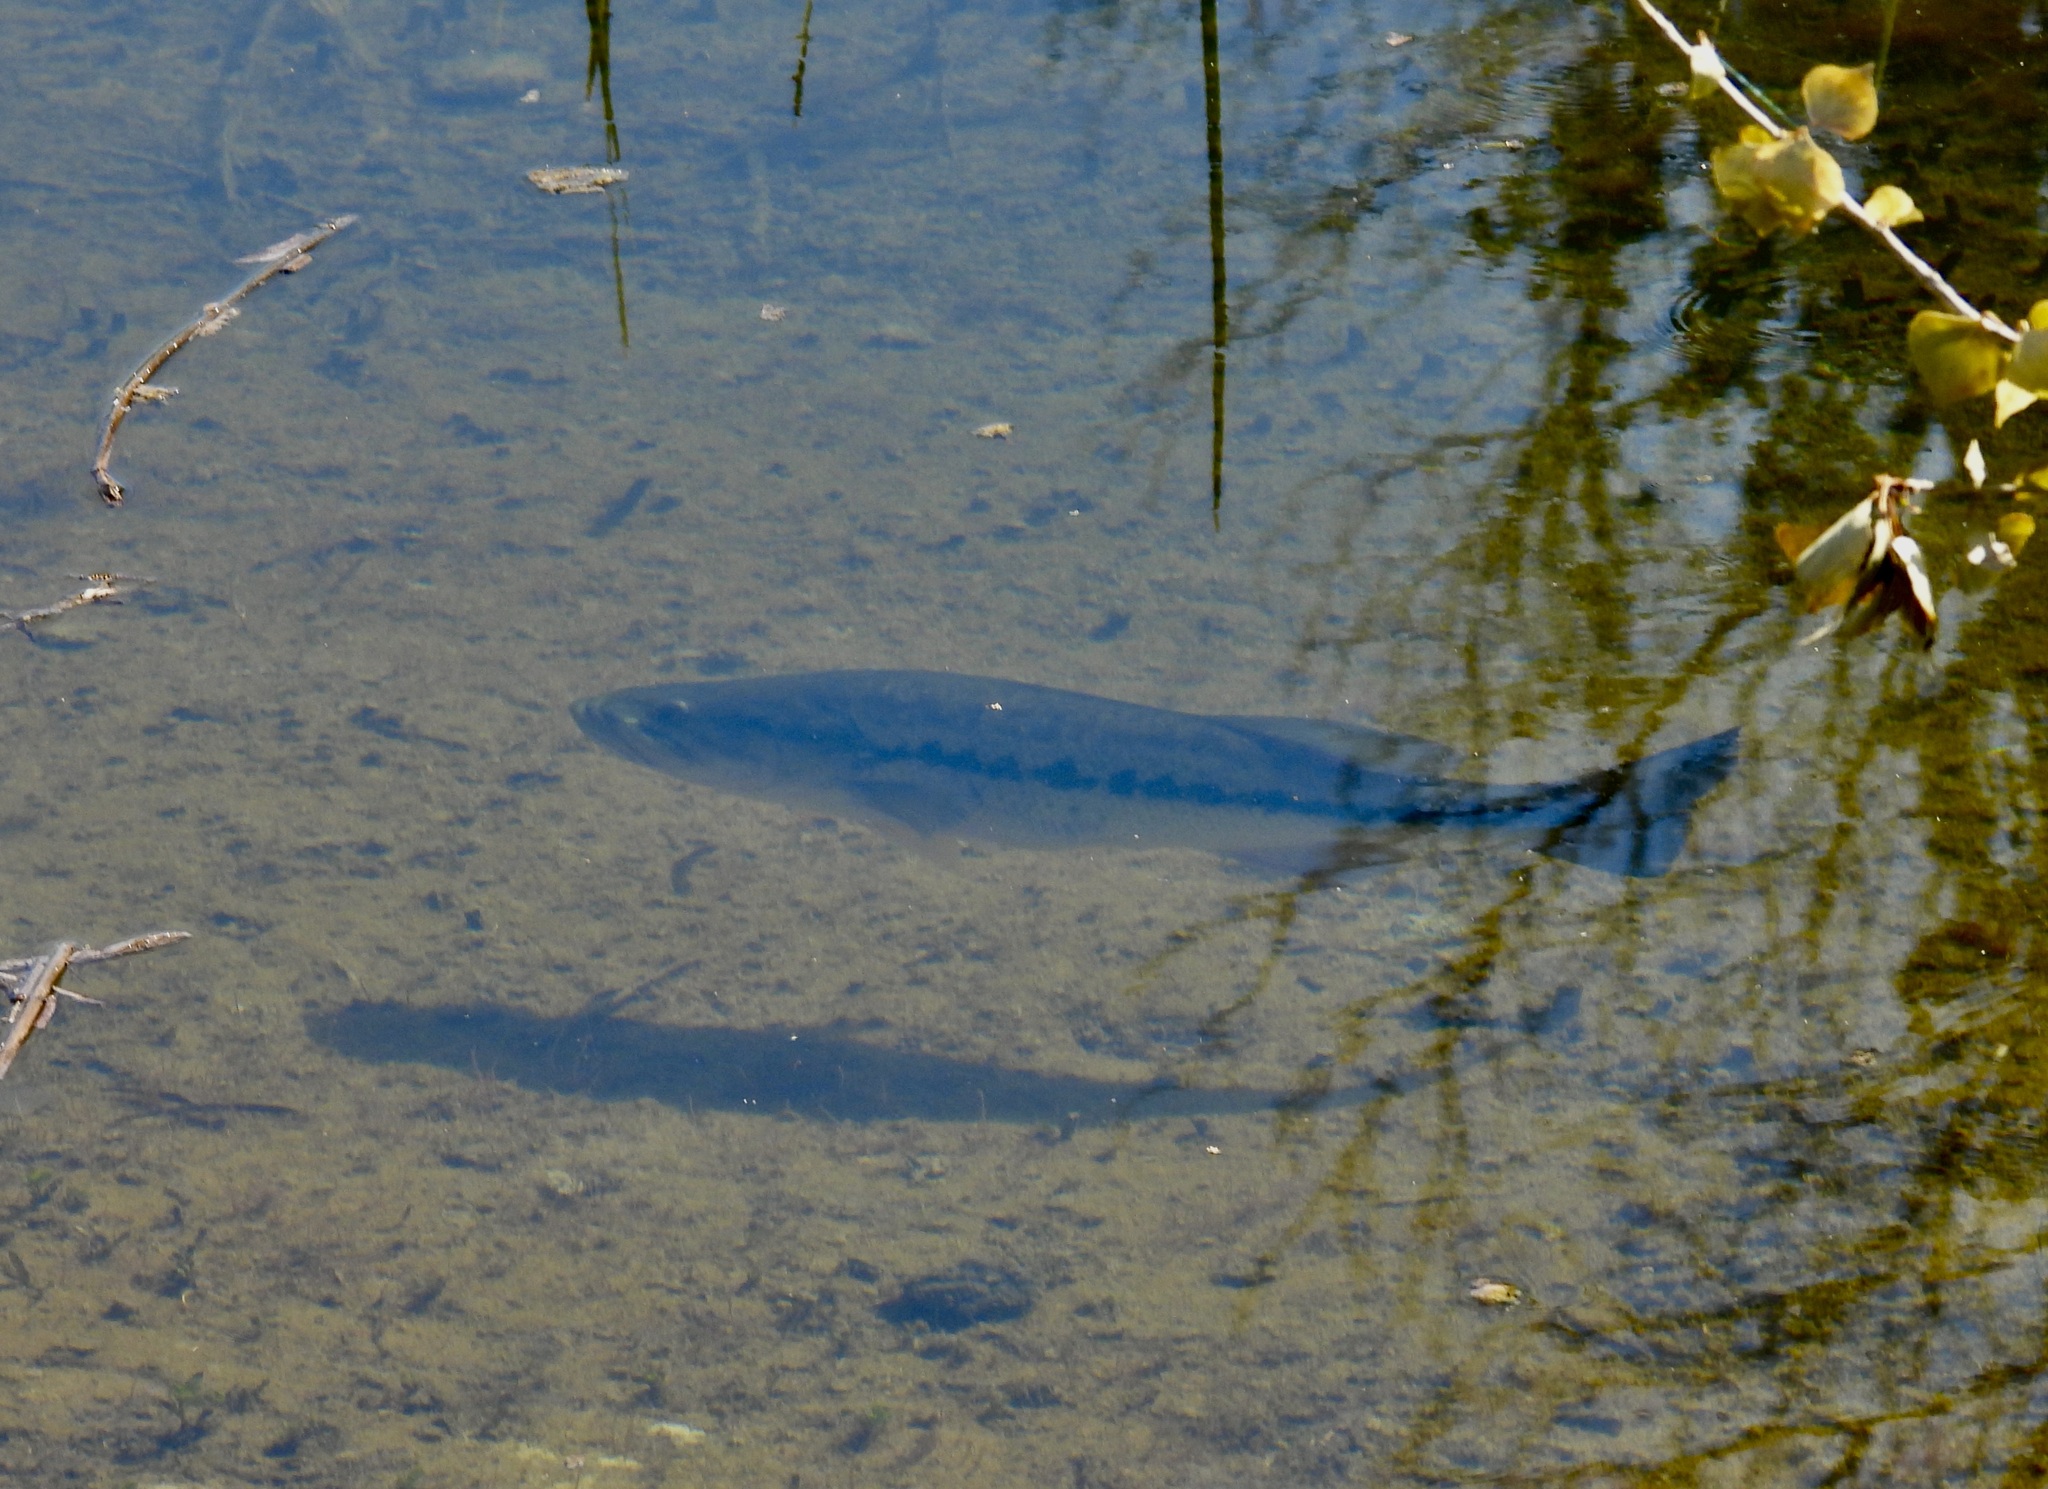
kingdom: Animalia
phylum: Chordata
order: Perciformes
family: Centrarchidae
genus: Micropterus
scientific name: Micropterus
